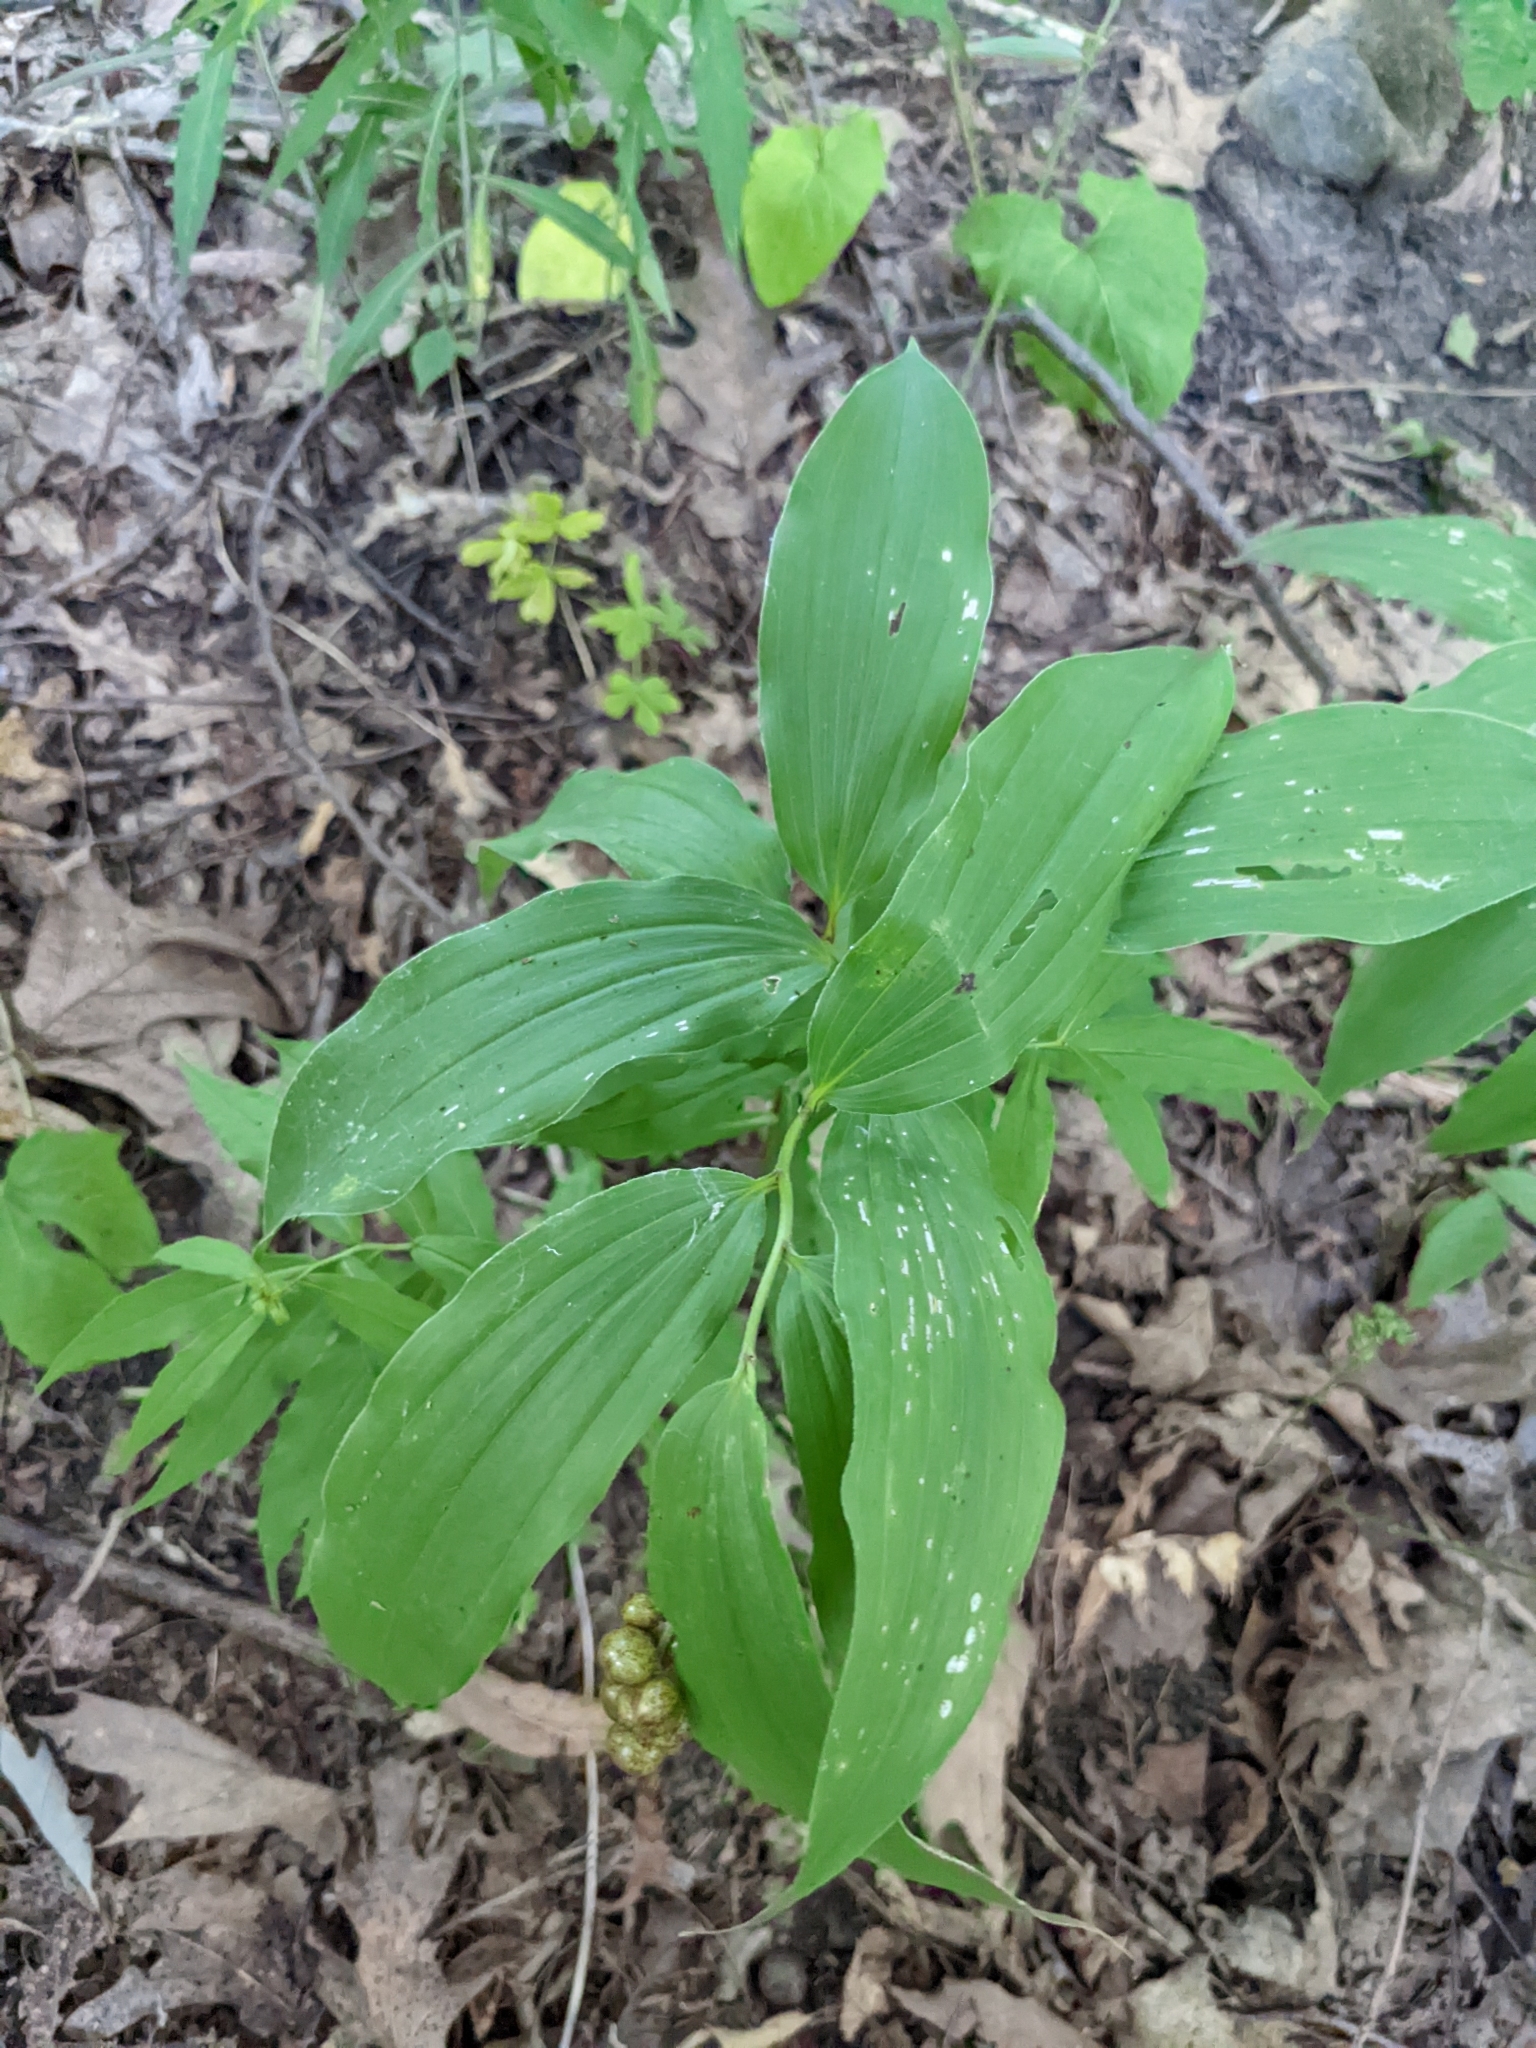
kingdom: Plantae
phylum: Tracheophyta
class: Liliopsida
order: Asparagales
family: Asparagaceae
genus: Maianthemum
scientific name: Maianthemum racemosum
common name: False spikenard
